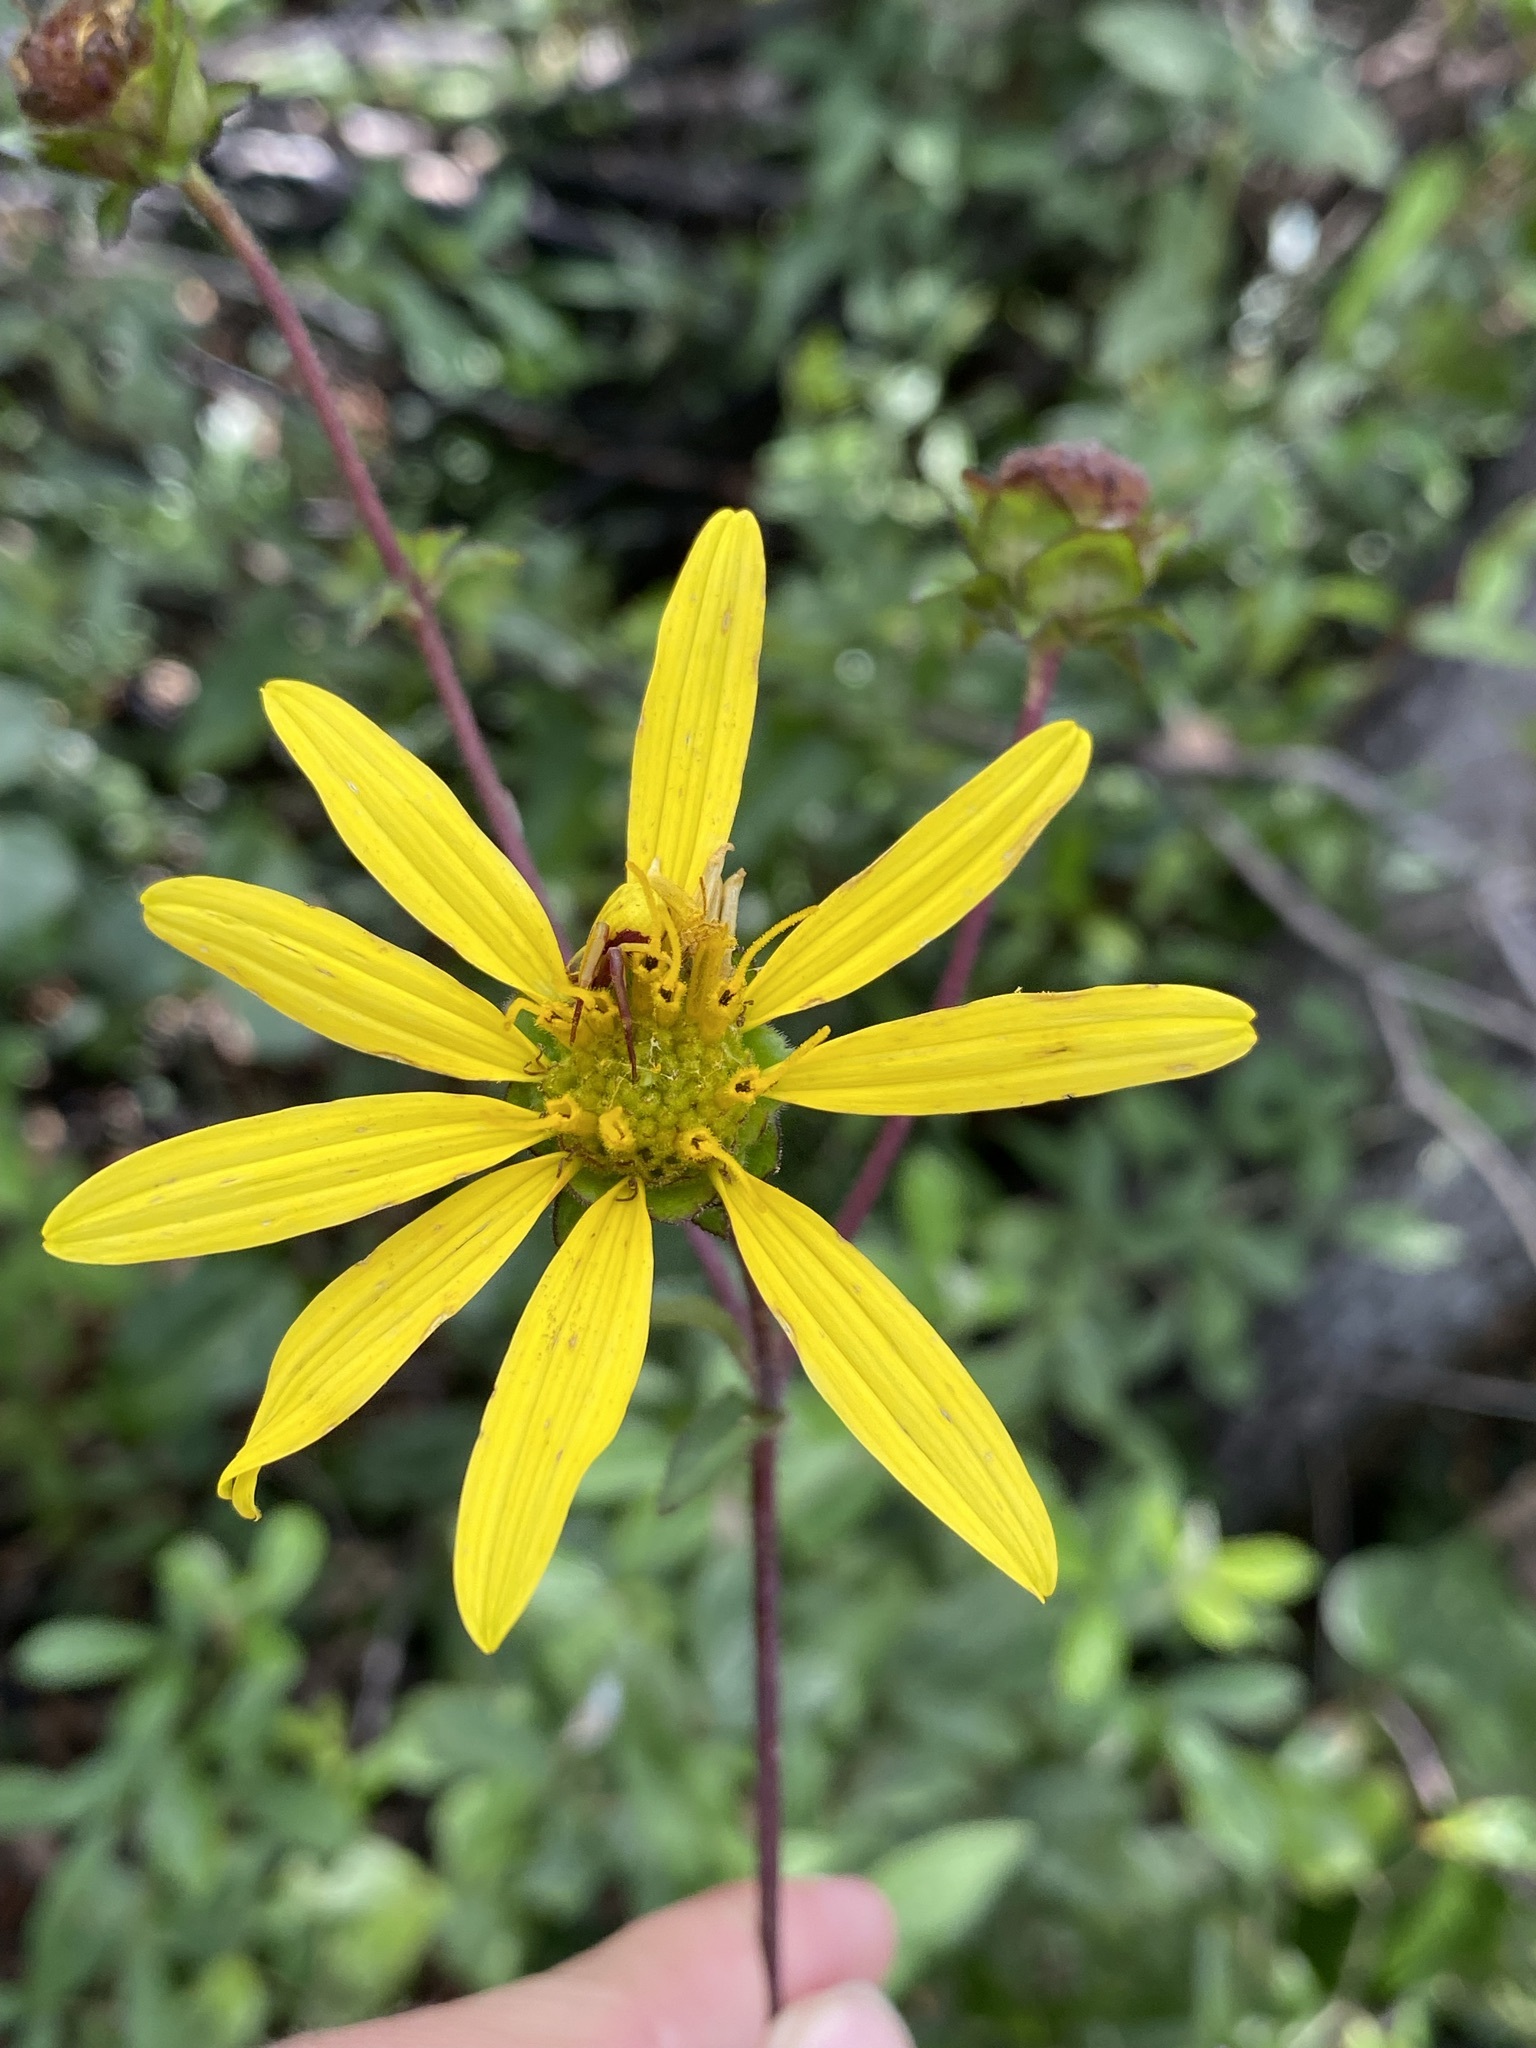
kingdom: Plantae
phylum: Tracheophyta
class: Magnoliopsida
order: Asterales
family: Asteraceae
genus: Silphium
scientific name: Silphium asteriscus
